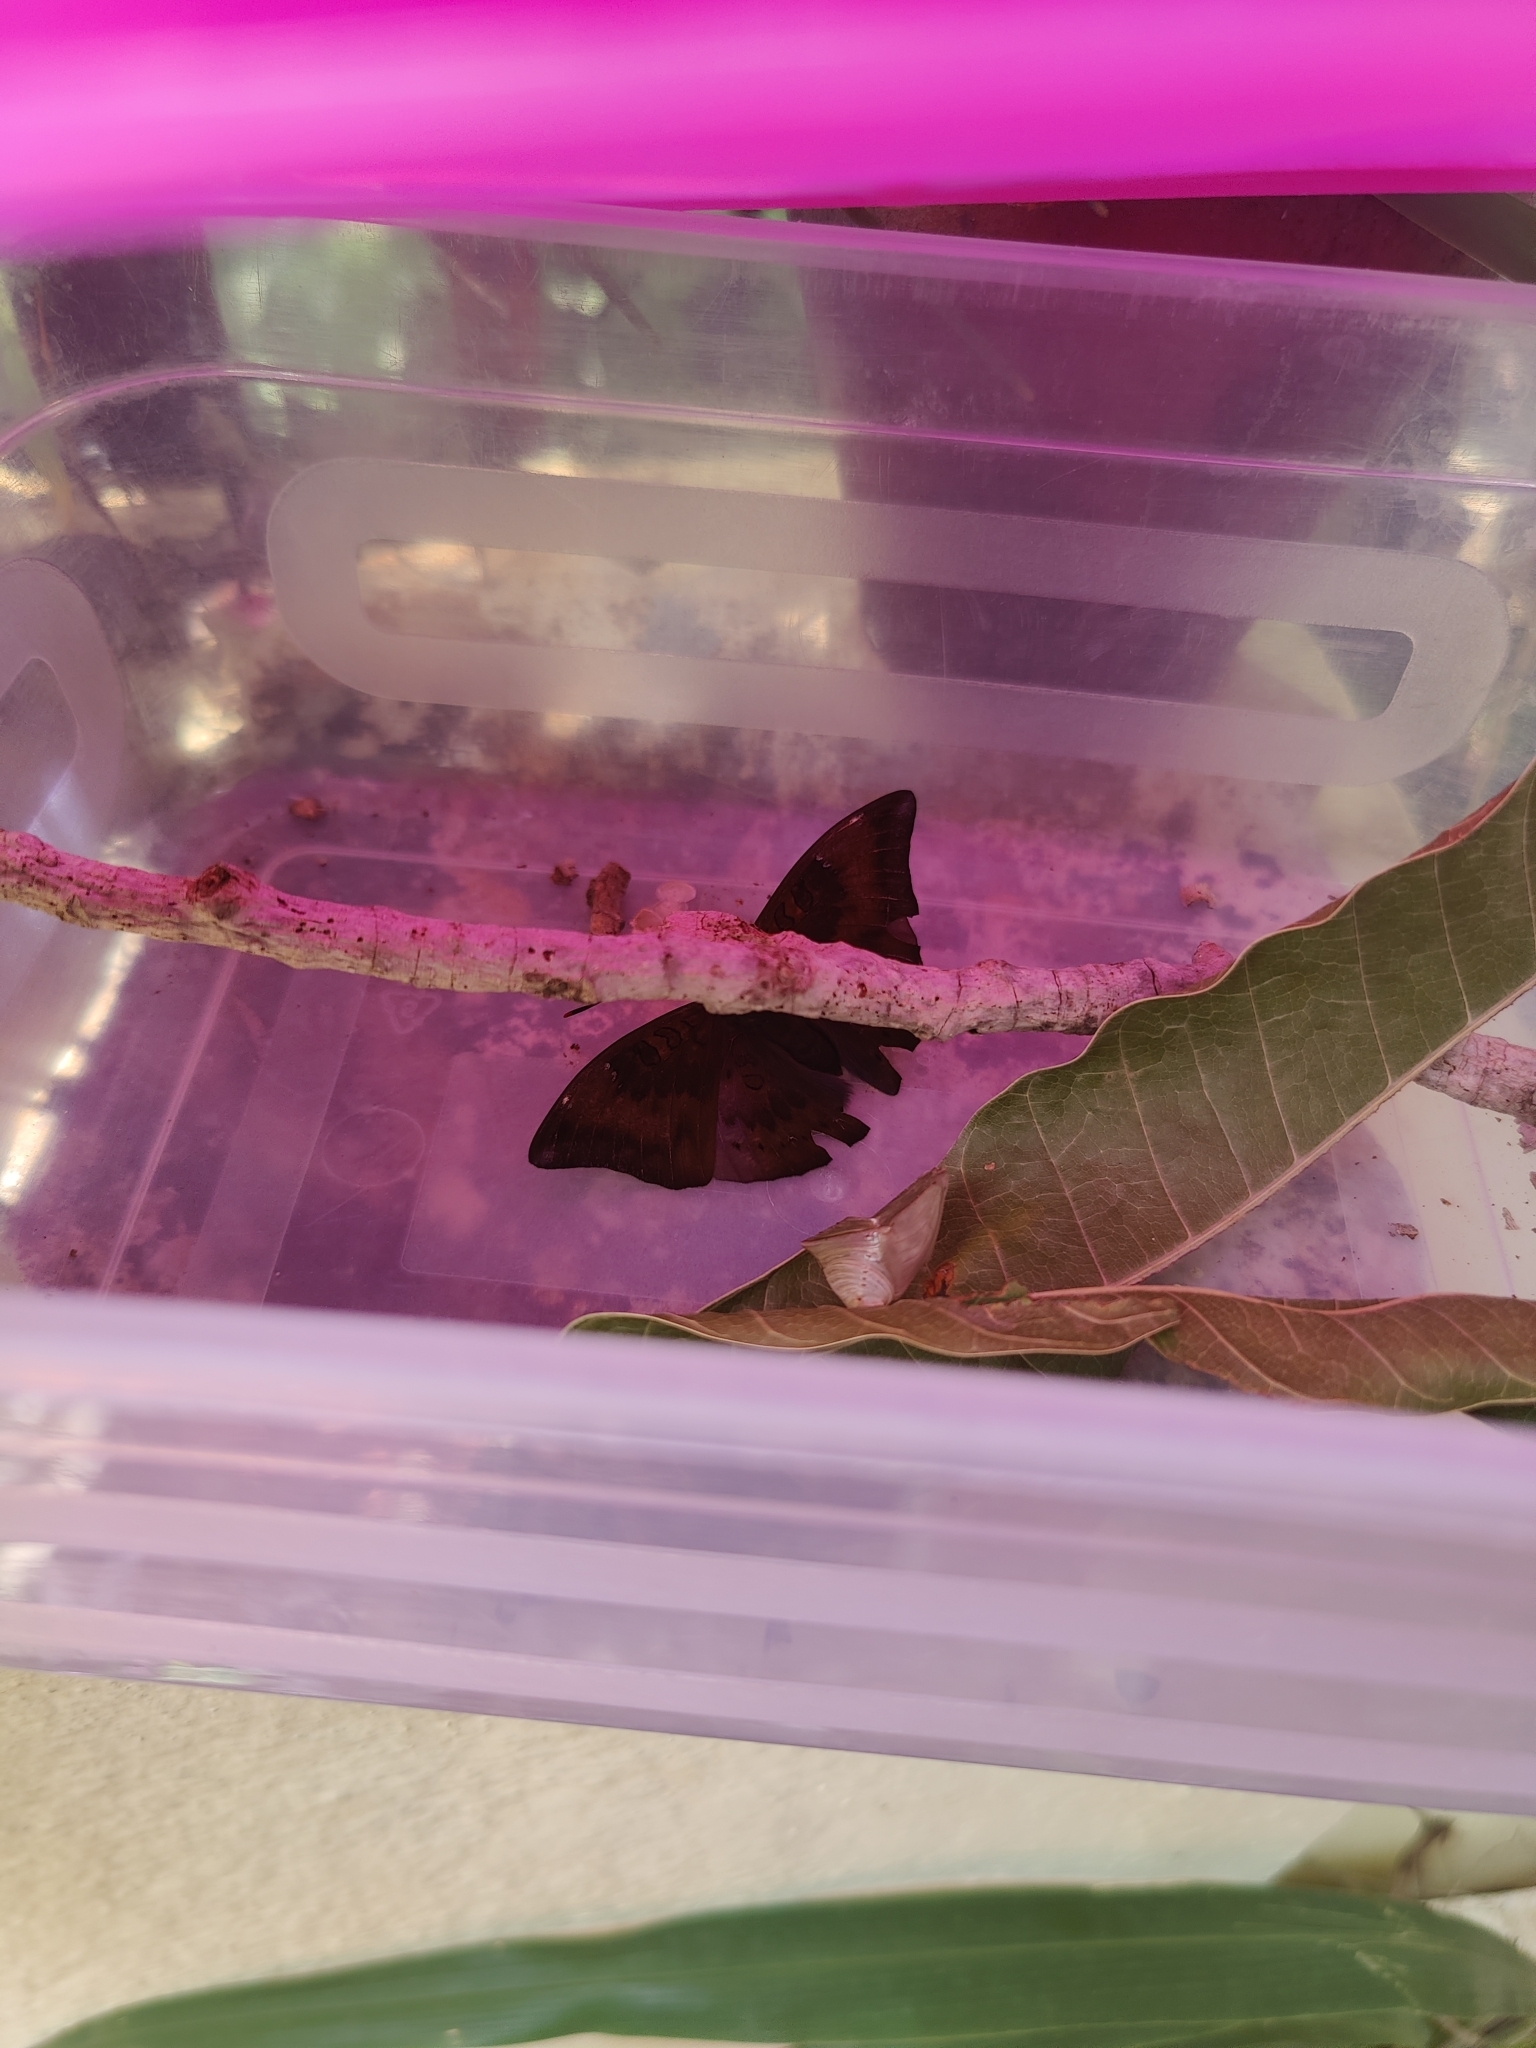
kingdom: Animalia
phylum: Arthropoda
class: Insecta
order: Lepidoptera
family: Nymphalidae
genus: Euthalia
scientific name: Euthalia aconthea
